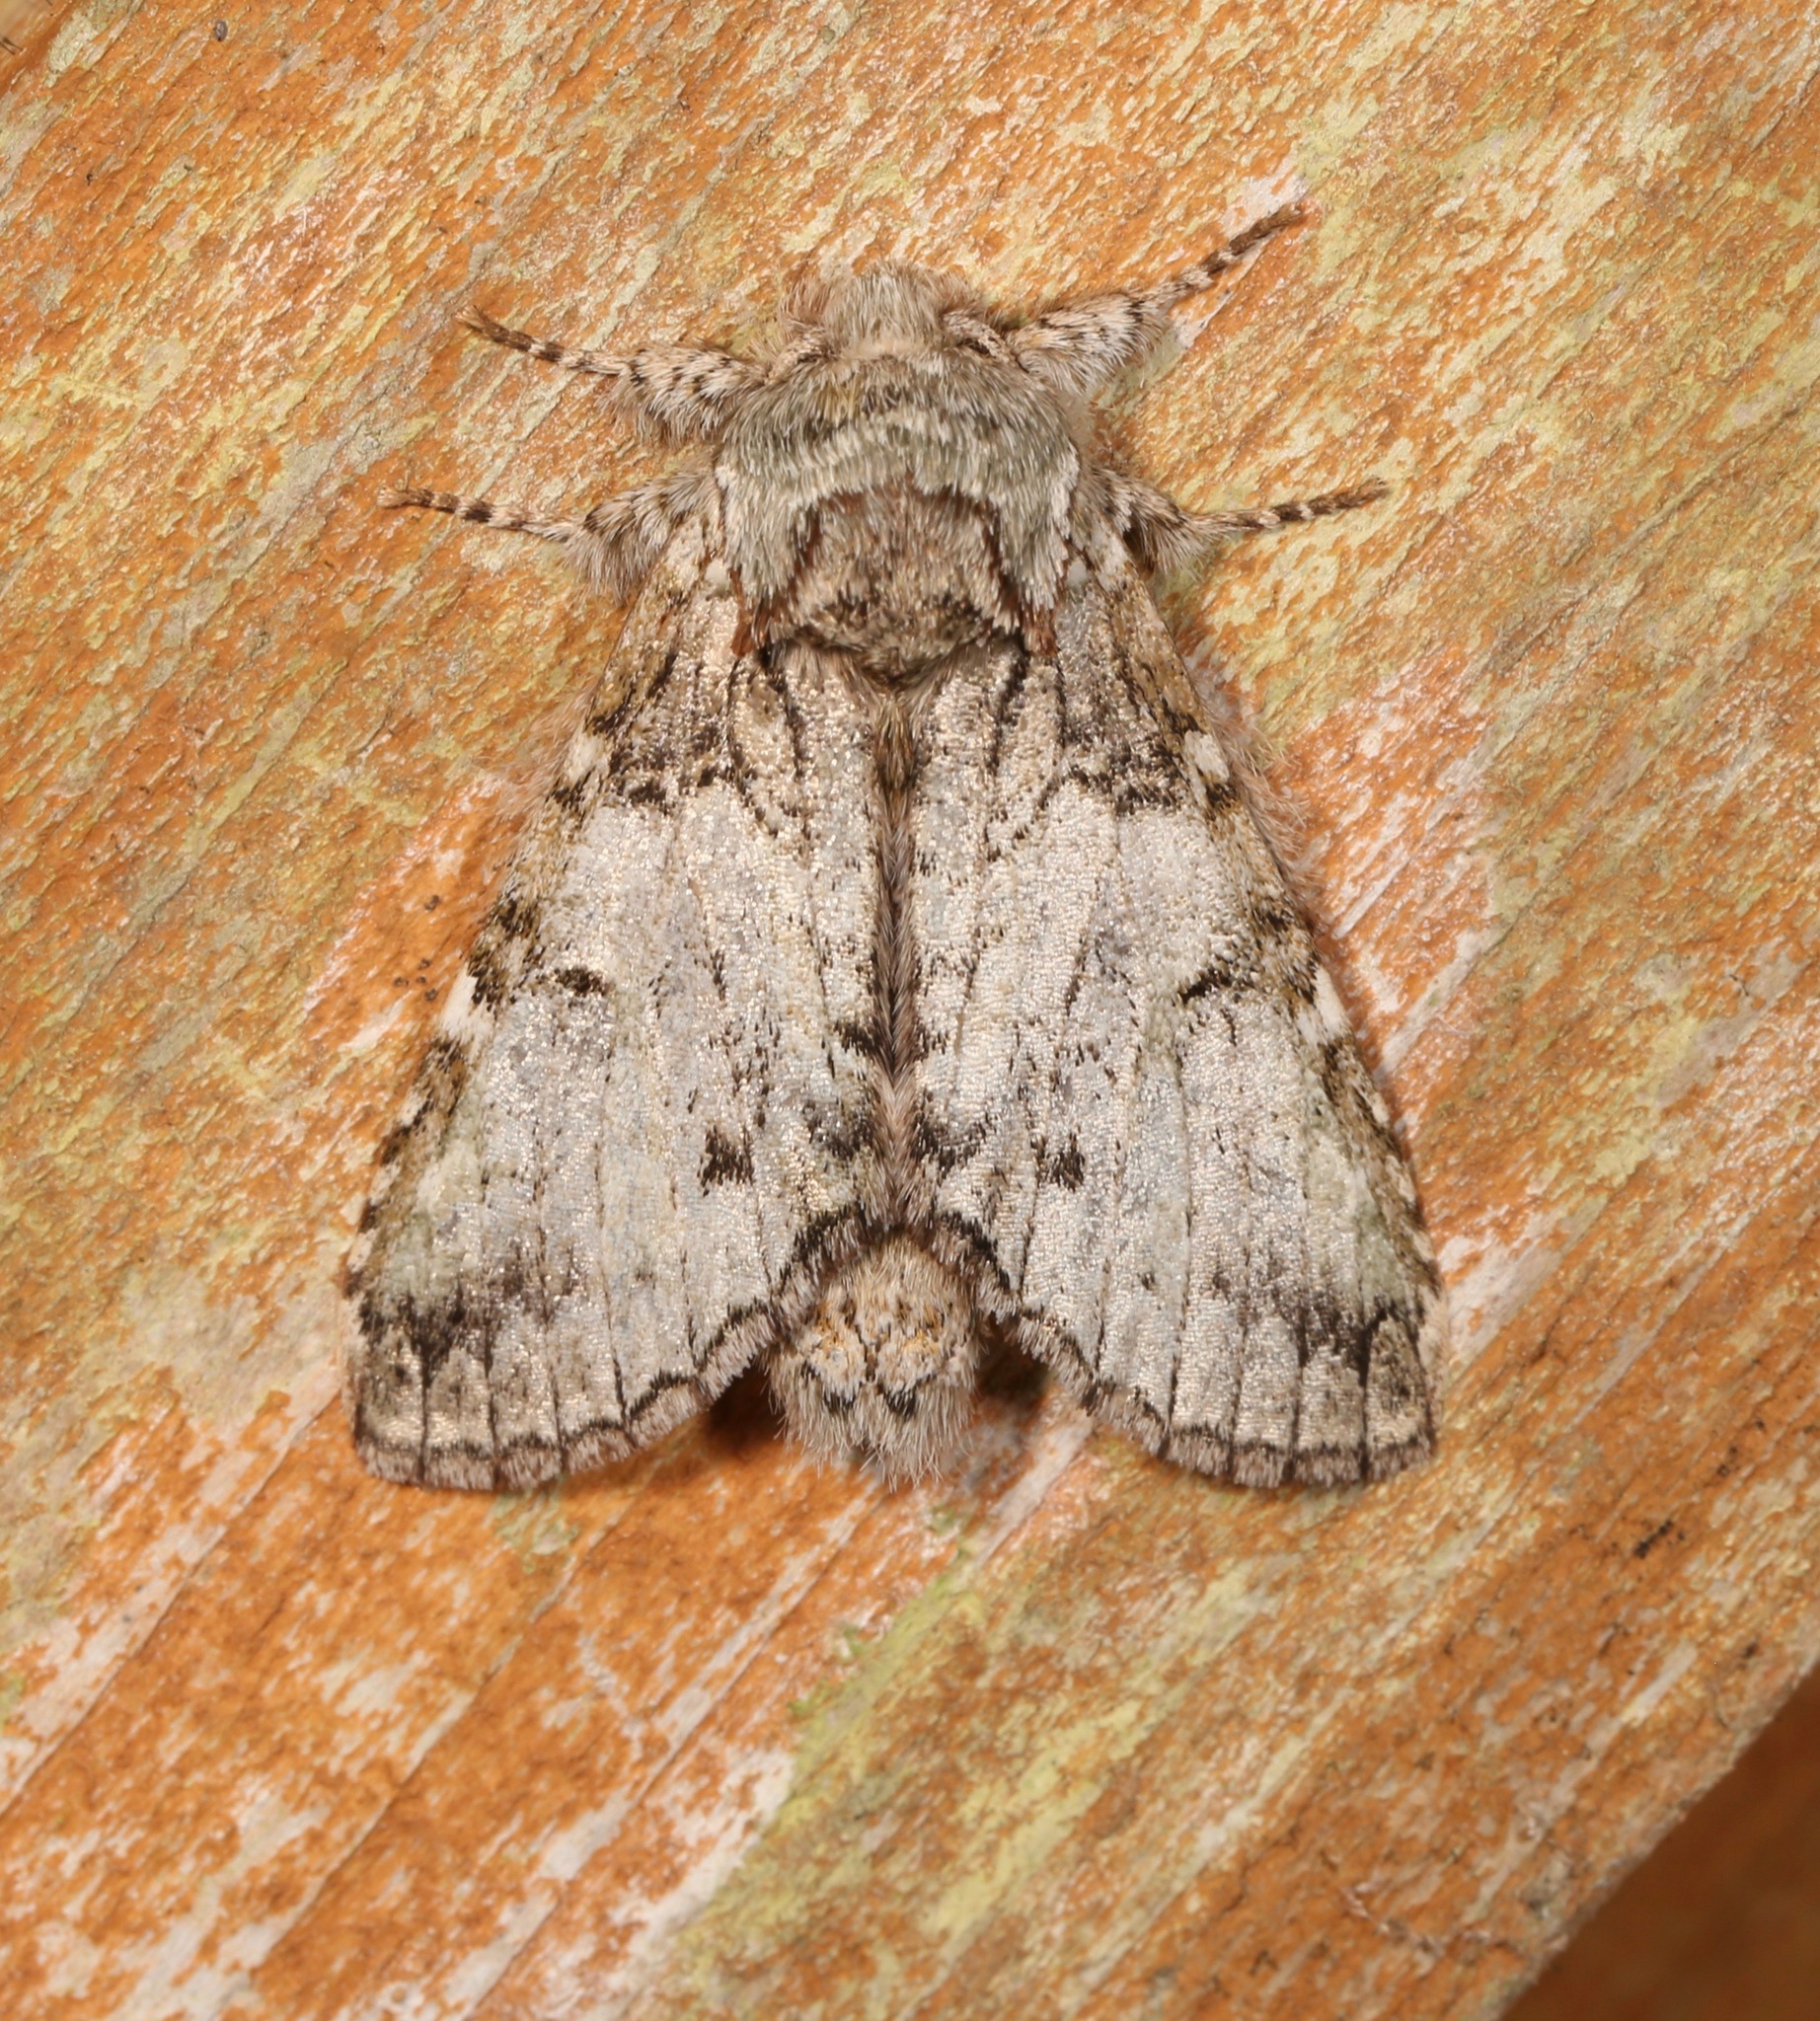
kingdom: Animalia
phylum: Arthropoda
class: Insecta
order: Lepidoptera
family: Notodontidae
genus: Macrurocampa
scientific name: Macrurocampa marthesia
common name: Mottled prominent
